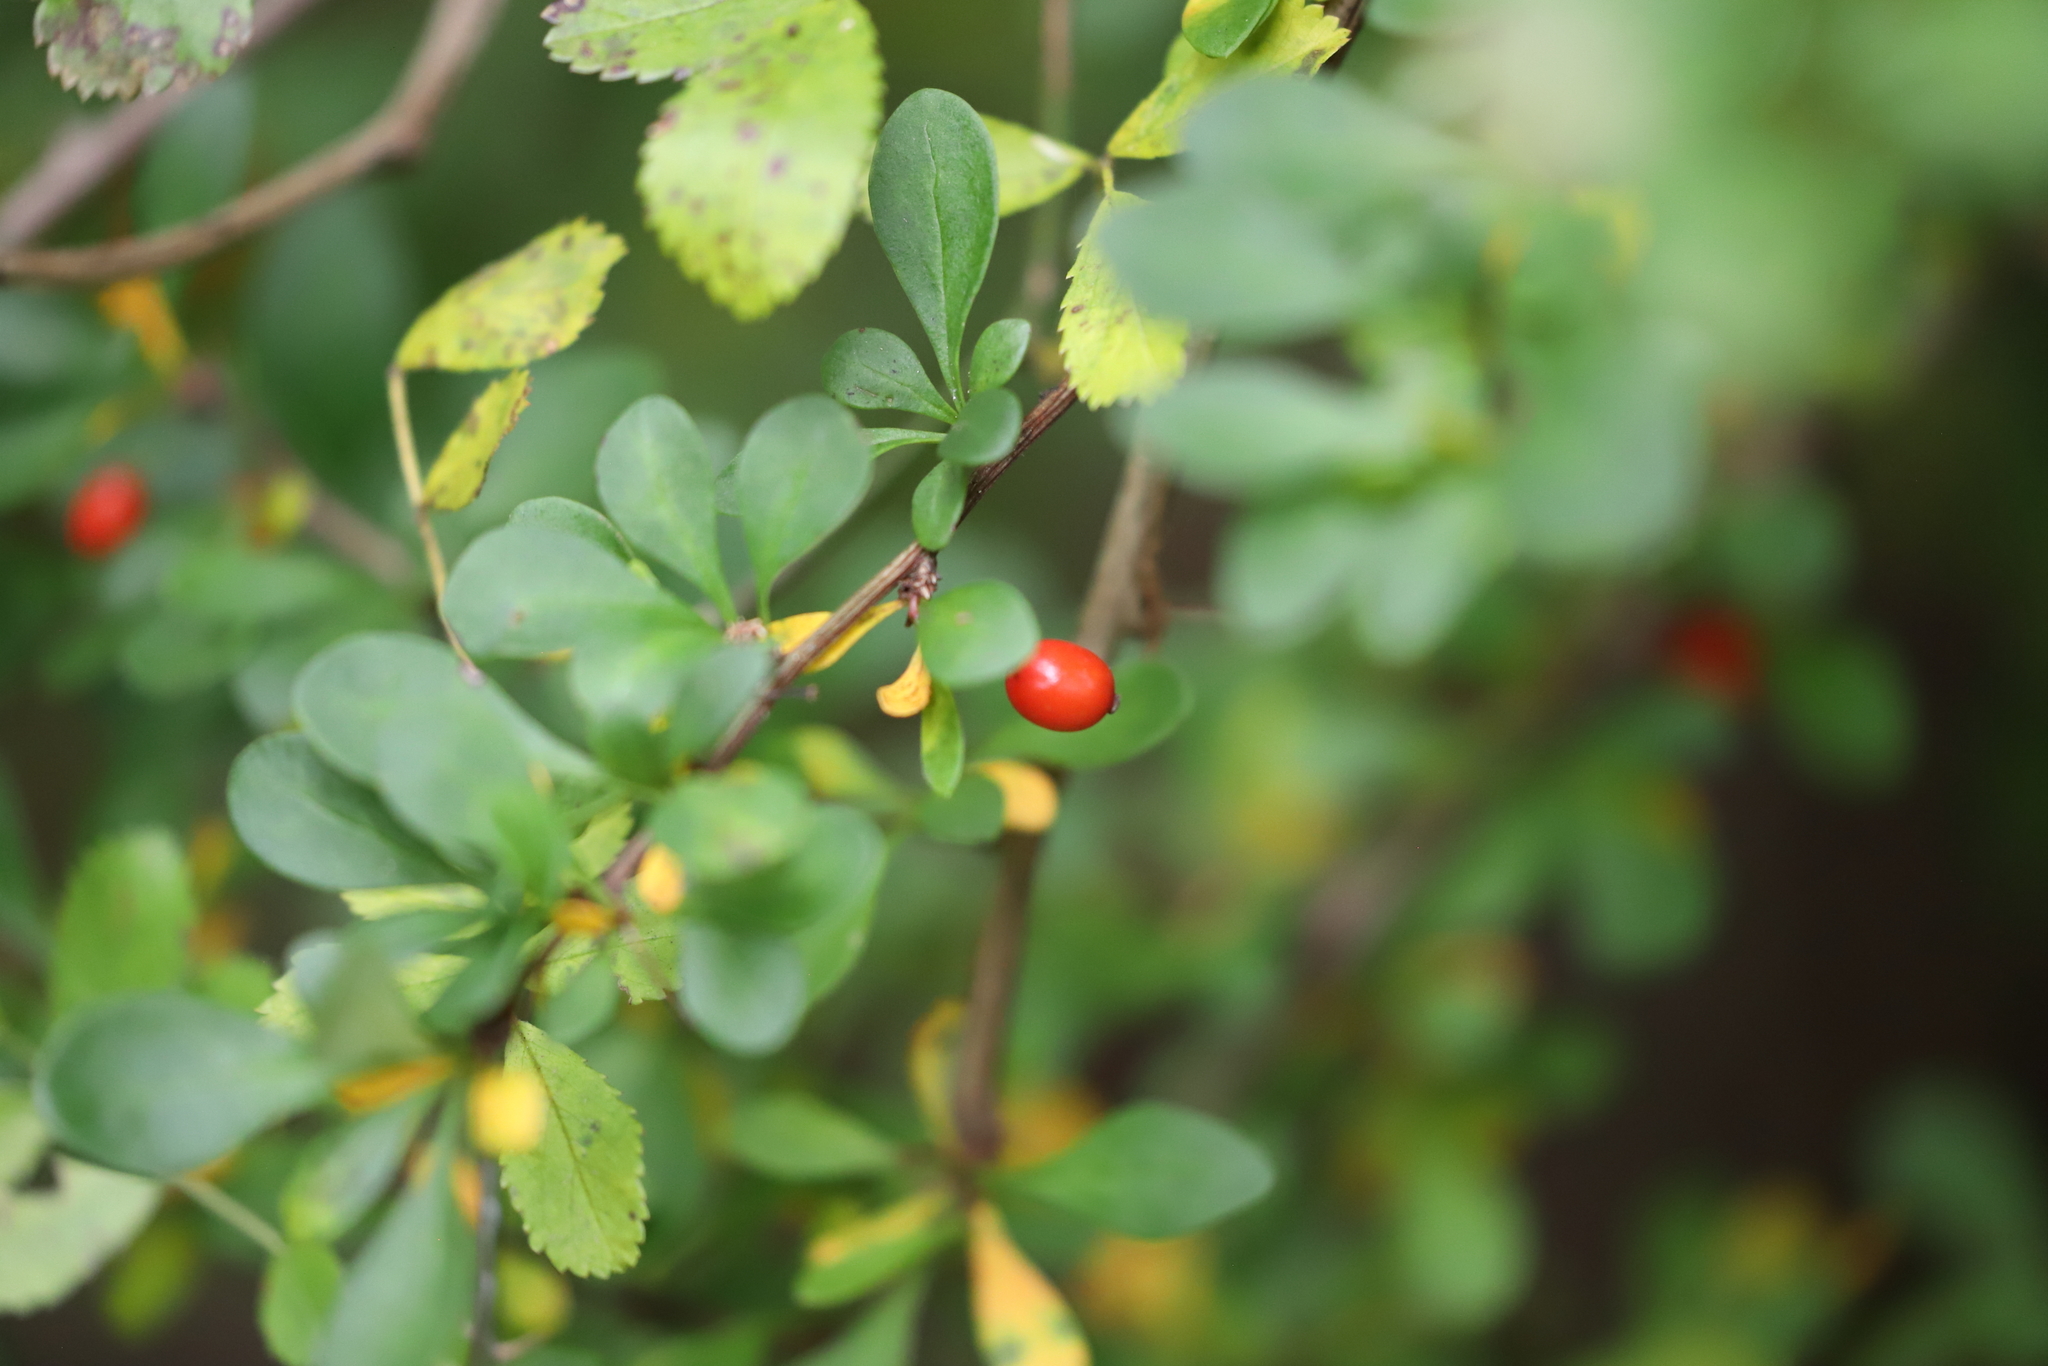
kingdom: Plantae
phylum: Tracheophyta
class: Magnoliopsida
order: Ranunculales
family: Berberidaceae
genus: Berberis
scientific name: Berberis thunbergii
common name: Japanese barberry
